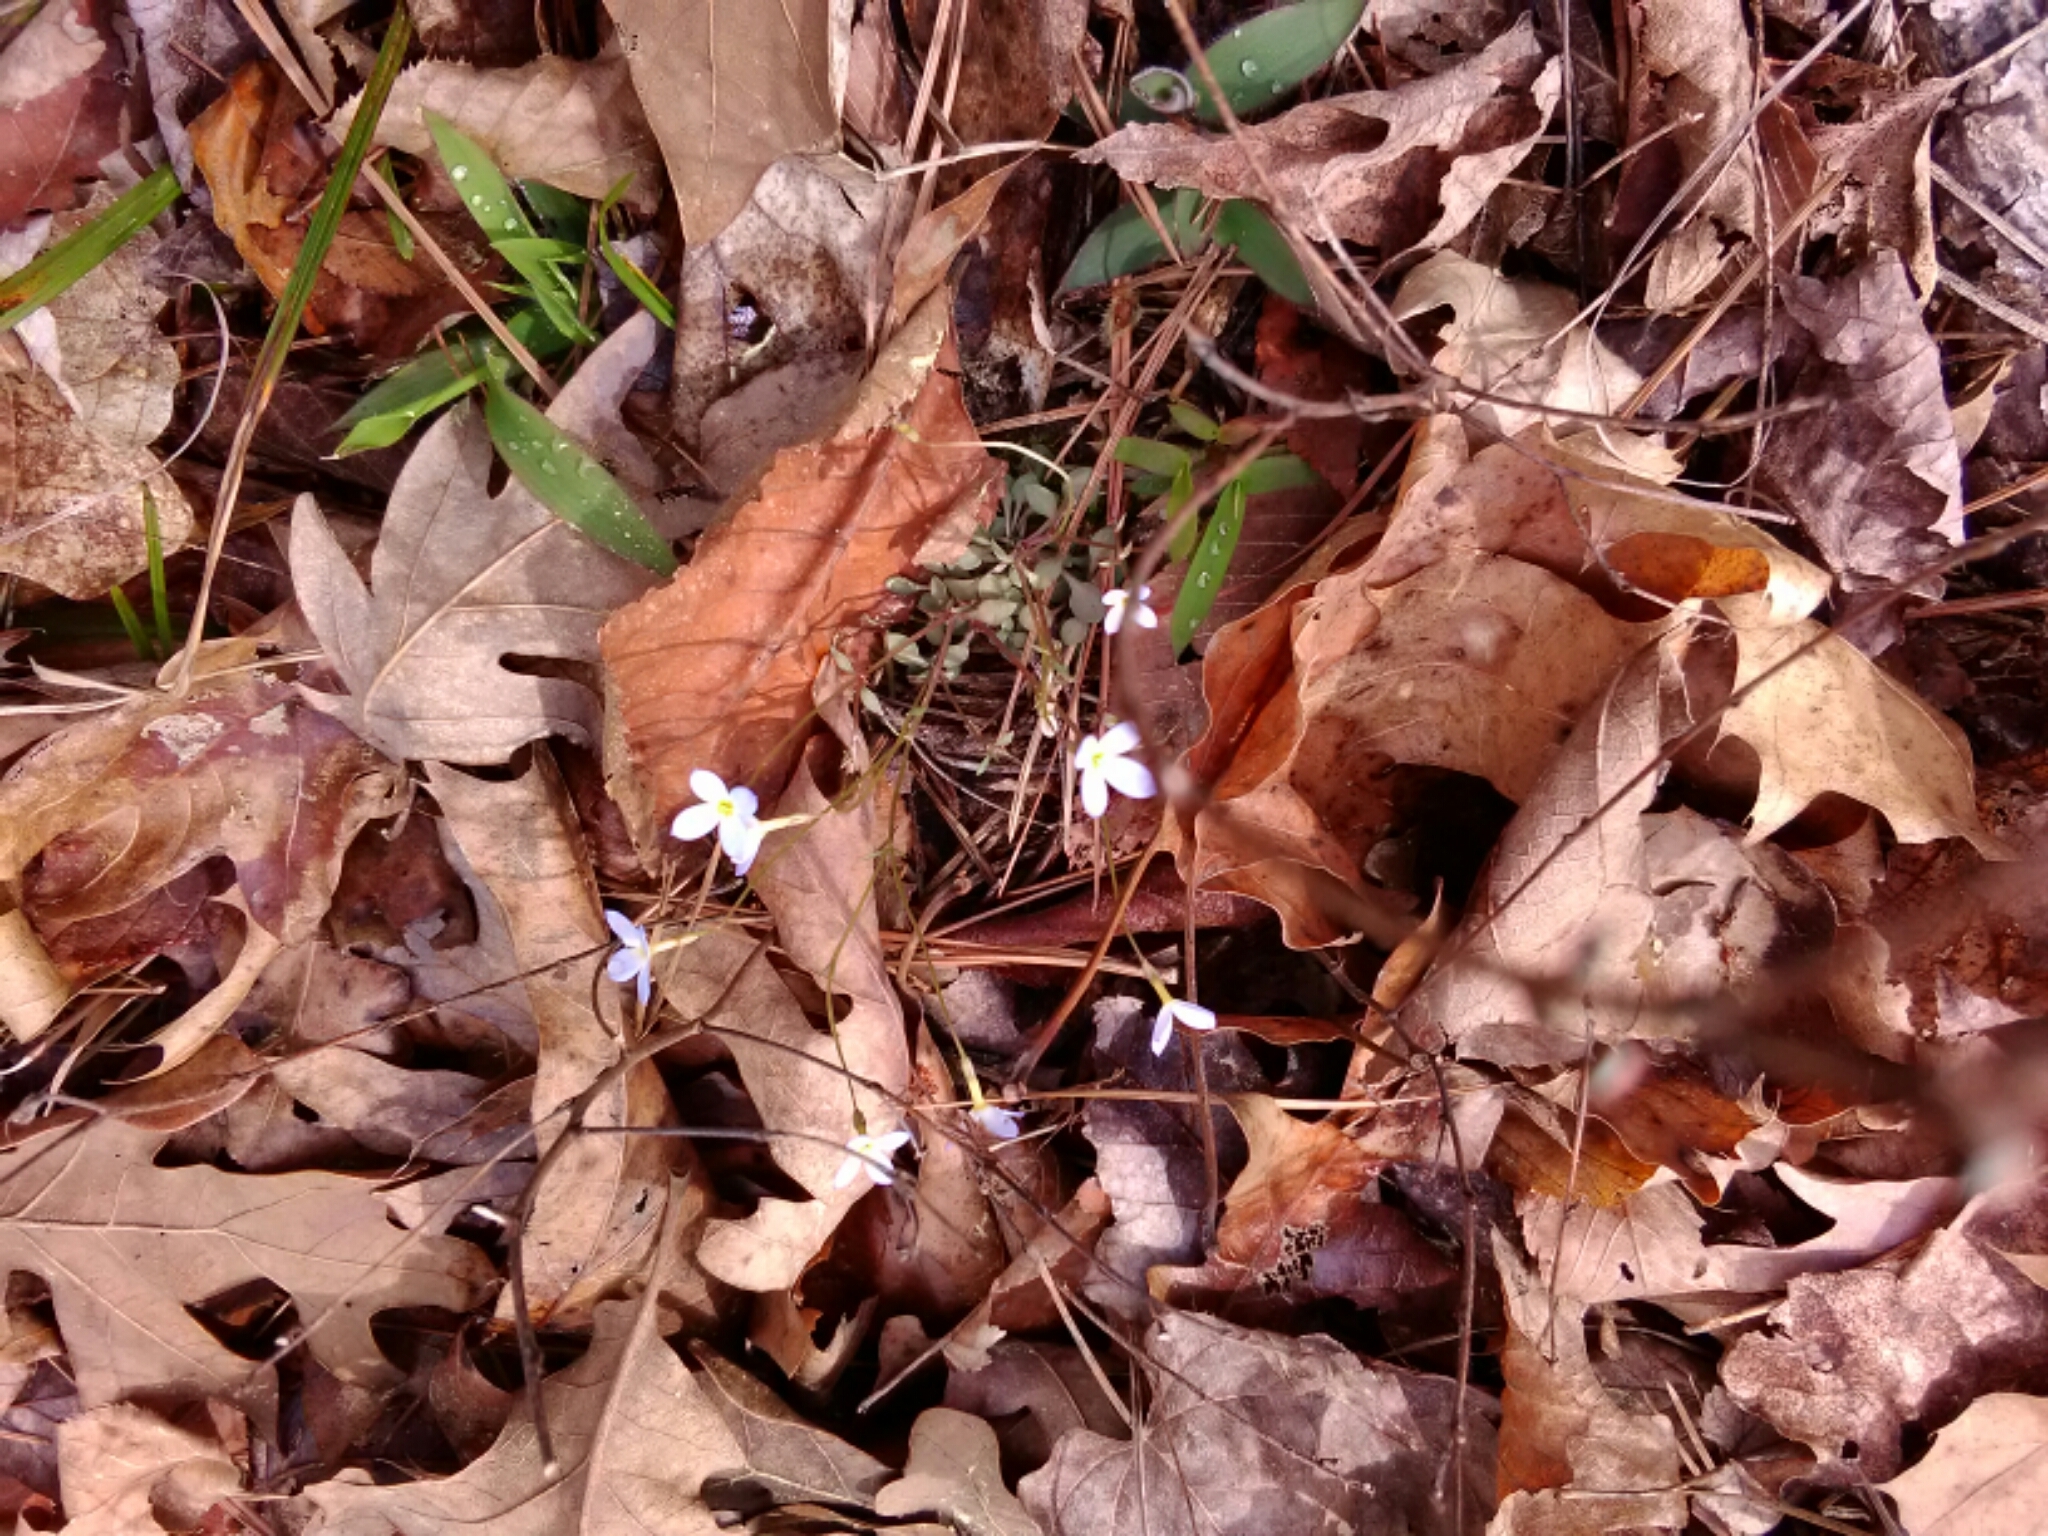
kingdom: Plantae
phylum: Tracheophyta
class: Magnoliopsida
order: Gentianales
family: Rubiaceae
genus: Houstonia
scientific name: Houstonia caerulea
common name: Bluets
